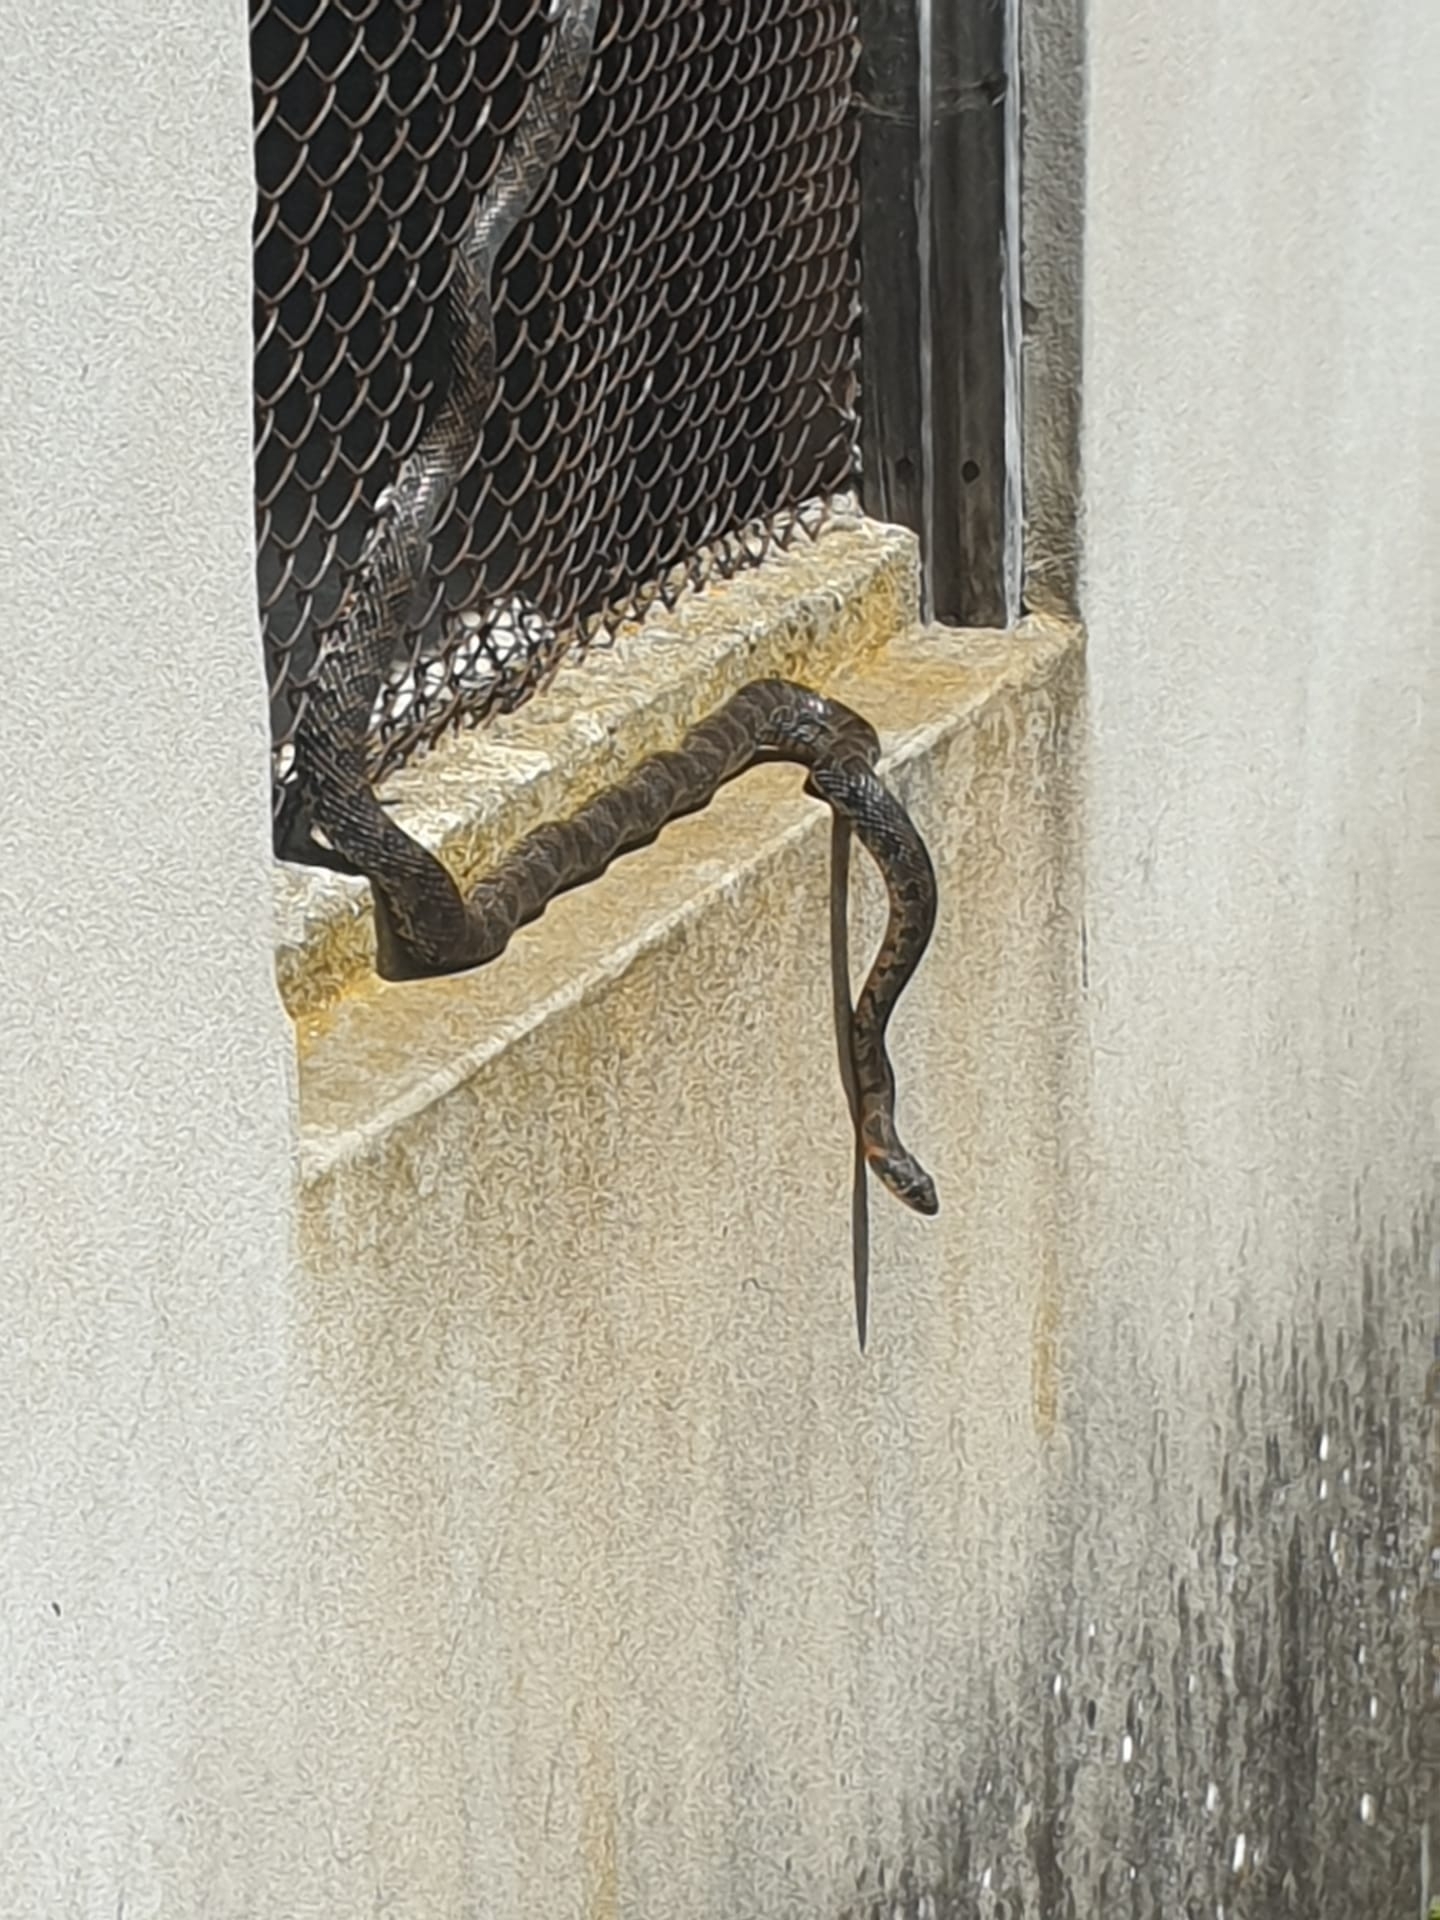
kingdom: Animalia
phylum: Chordata
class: Squamata
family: Colubridae
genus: Hemorrhois
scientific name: Hemorrhois hippocrepis
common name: Horseshoe whip snake
